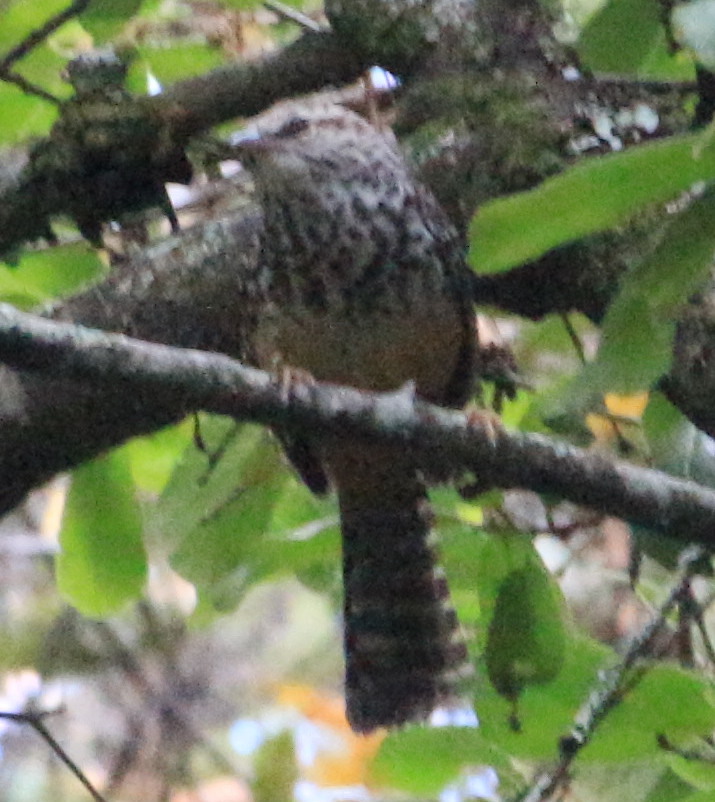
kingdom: Animalia
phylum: Chordata
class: Aves
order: Passeriformes
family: Troglodytidae
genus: Campylorhynchus
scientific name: Campylorhynchus zonatus
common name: Band-backed wren
